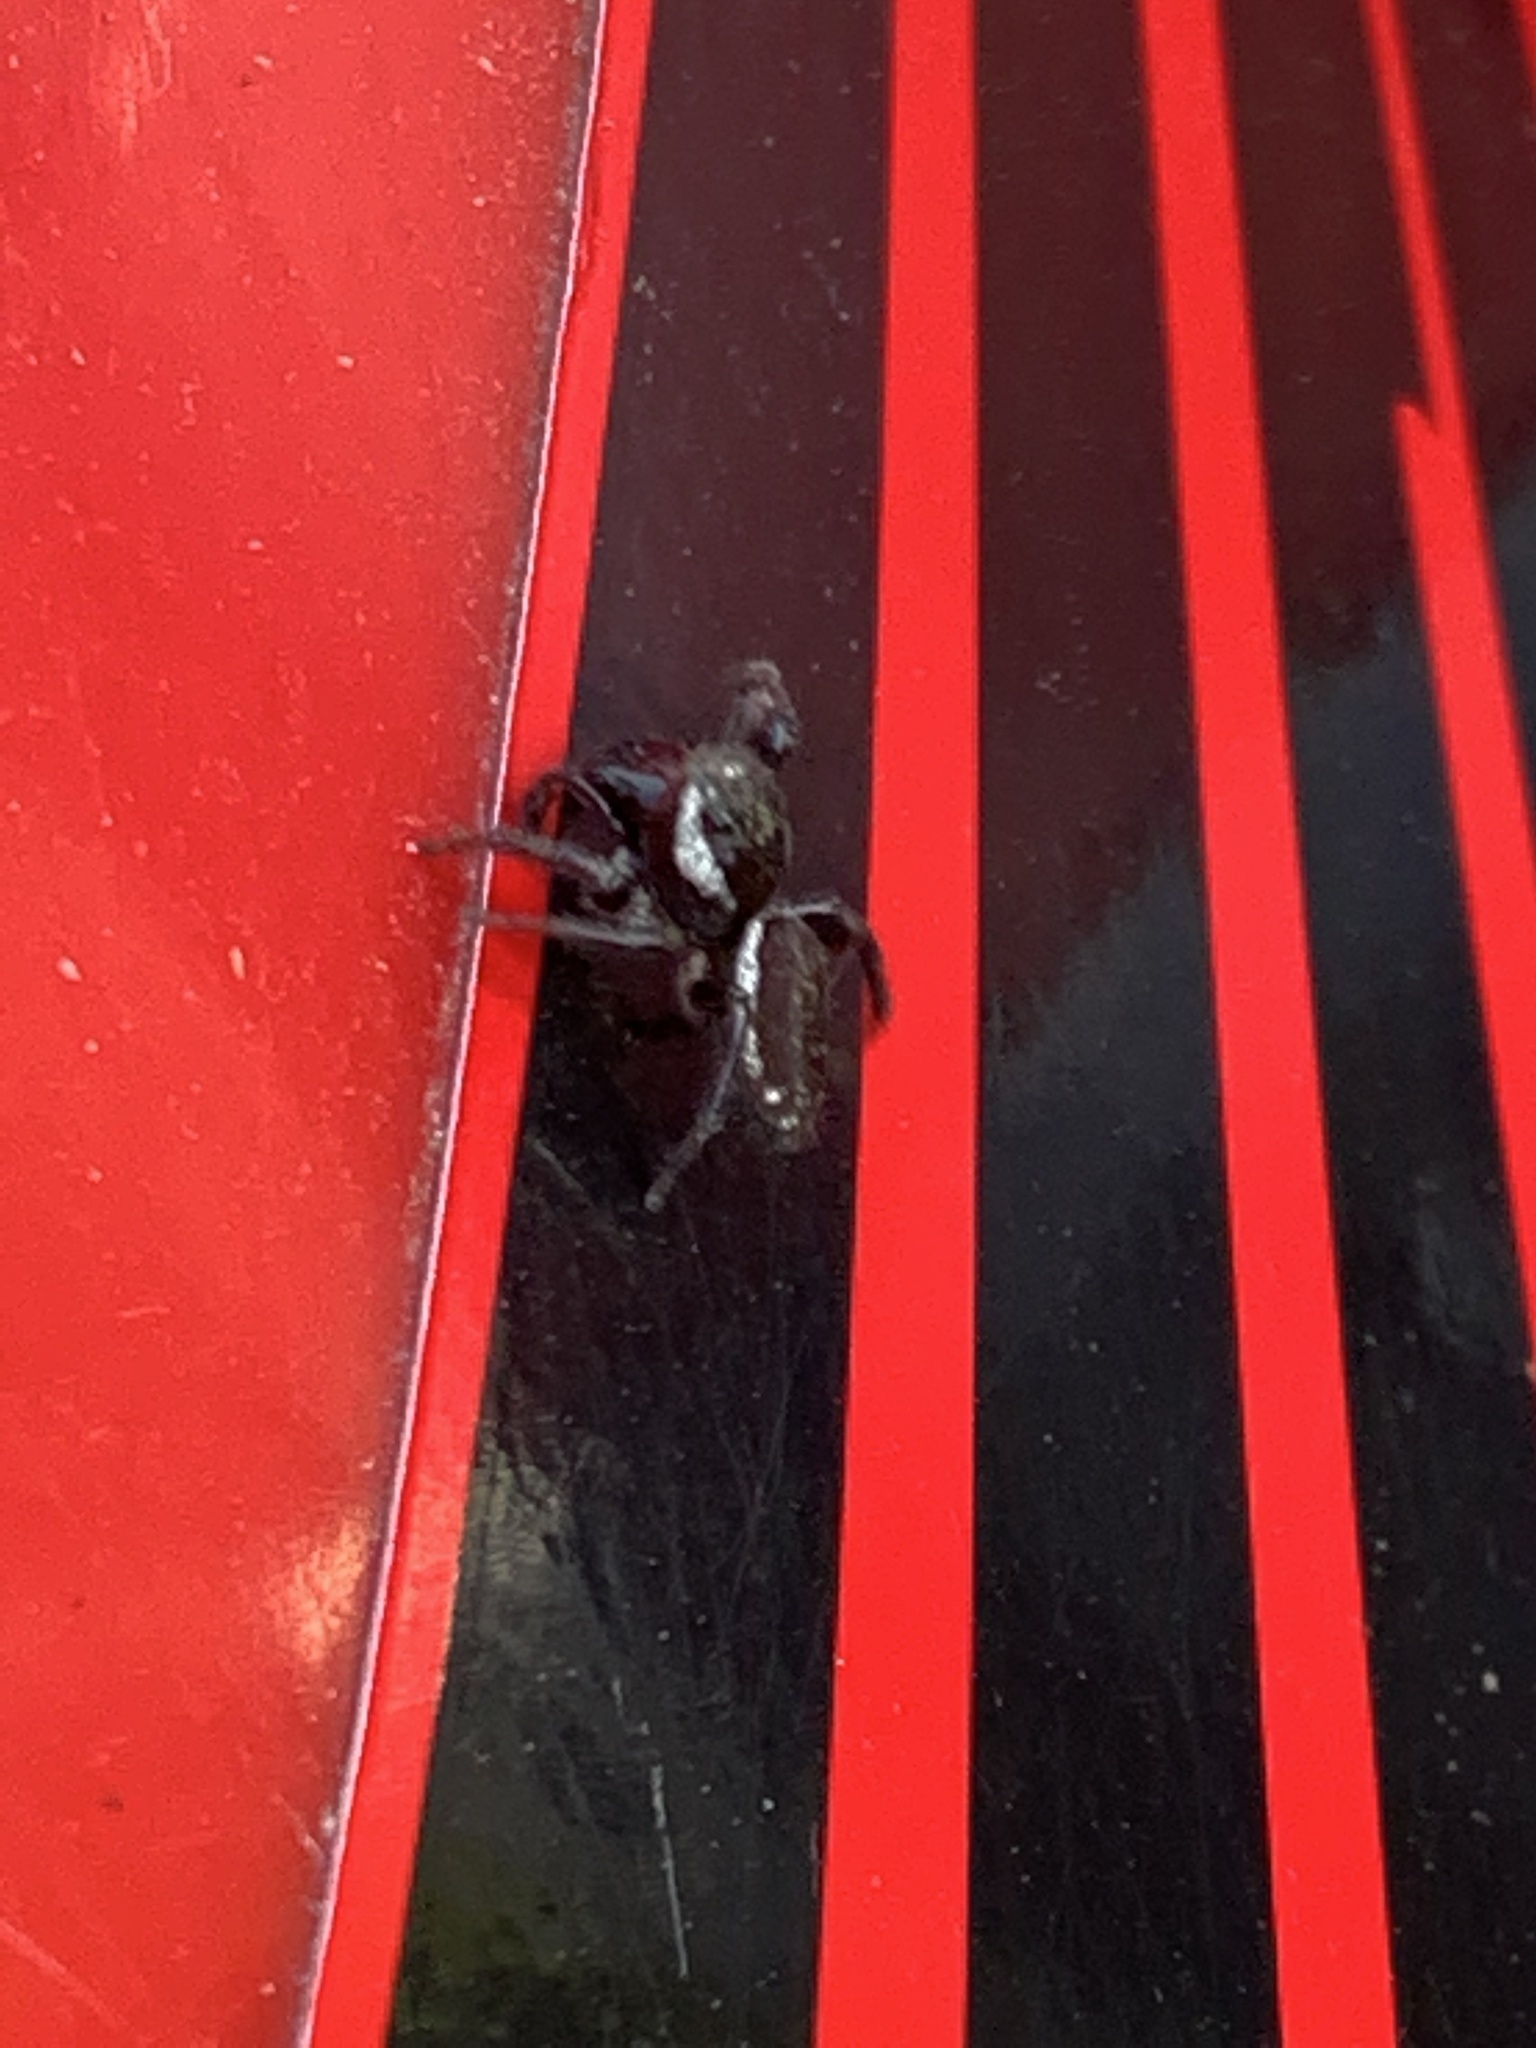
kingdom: Animalia
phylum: Arthropoda
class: Arachnida
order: Araneae
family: Salticidae
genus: Eris
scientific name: Eris militaris
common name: Bronze jumper
